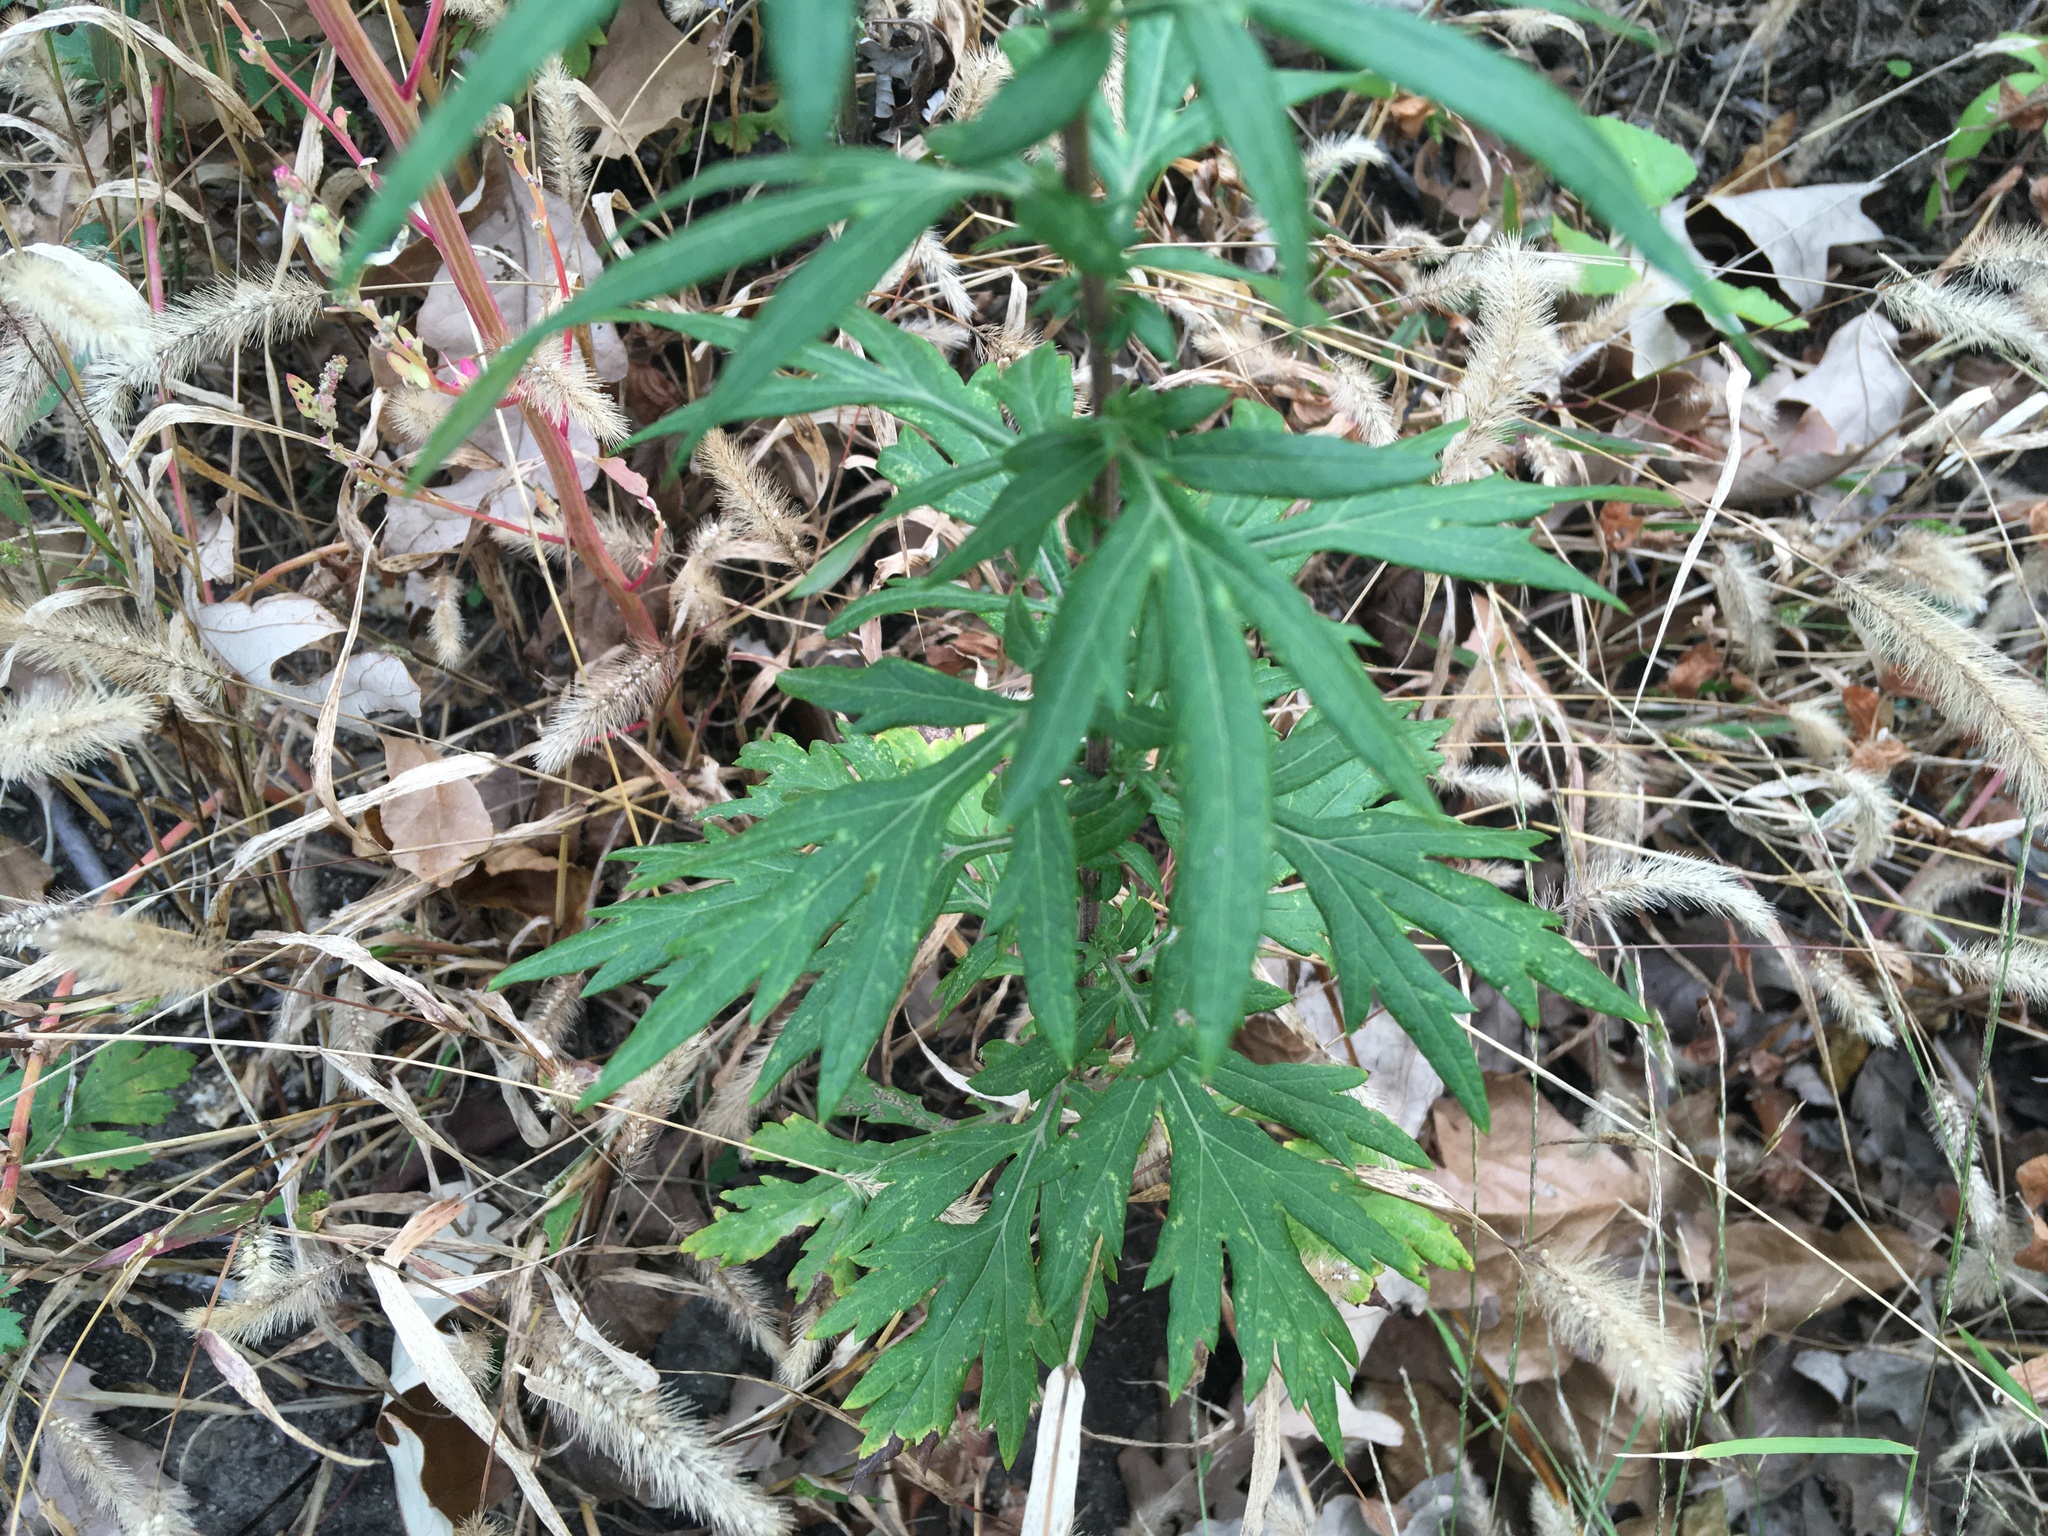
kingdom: Plantae
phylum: Tracheophyta
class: Magnoliopsida
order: Asterales
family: Asteraceae
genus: Artemisia
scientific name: Artemisia vulgaris
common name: Mugwort
